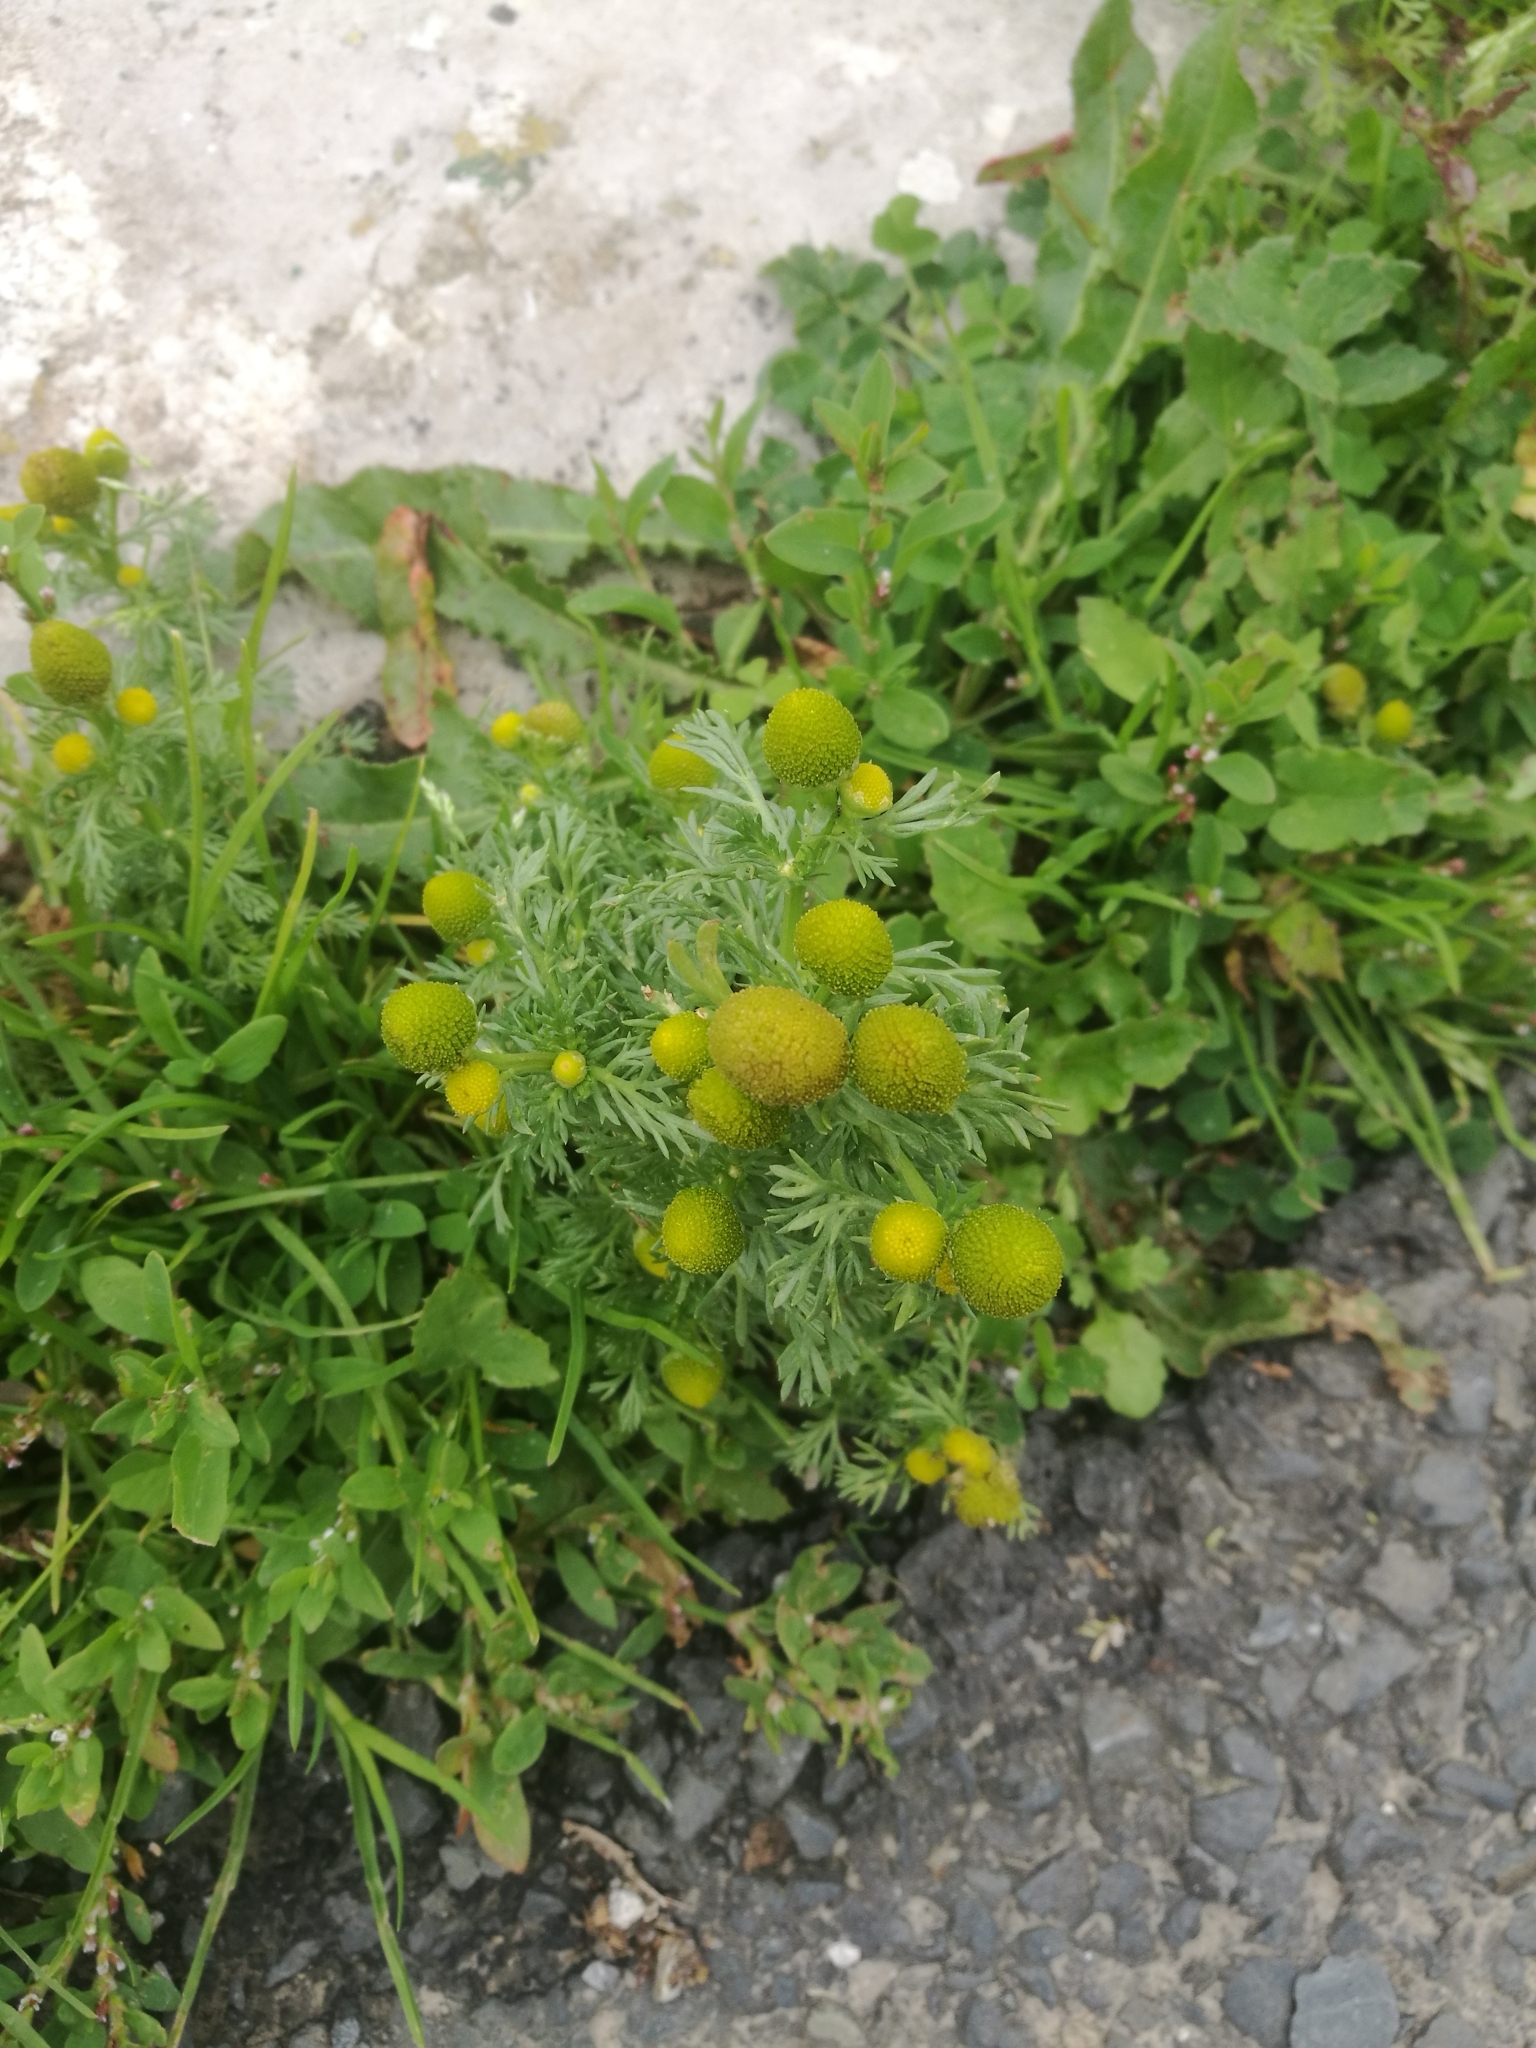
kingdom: Plantae
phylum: Tracheophyta
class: Magnoliopsida
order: Asterales
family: Asteraceae
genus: Matricaria
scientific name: Matricaria discoidea
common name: Disc mayweed
